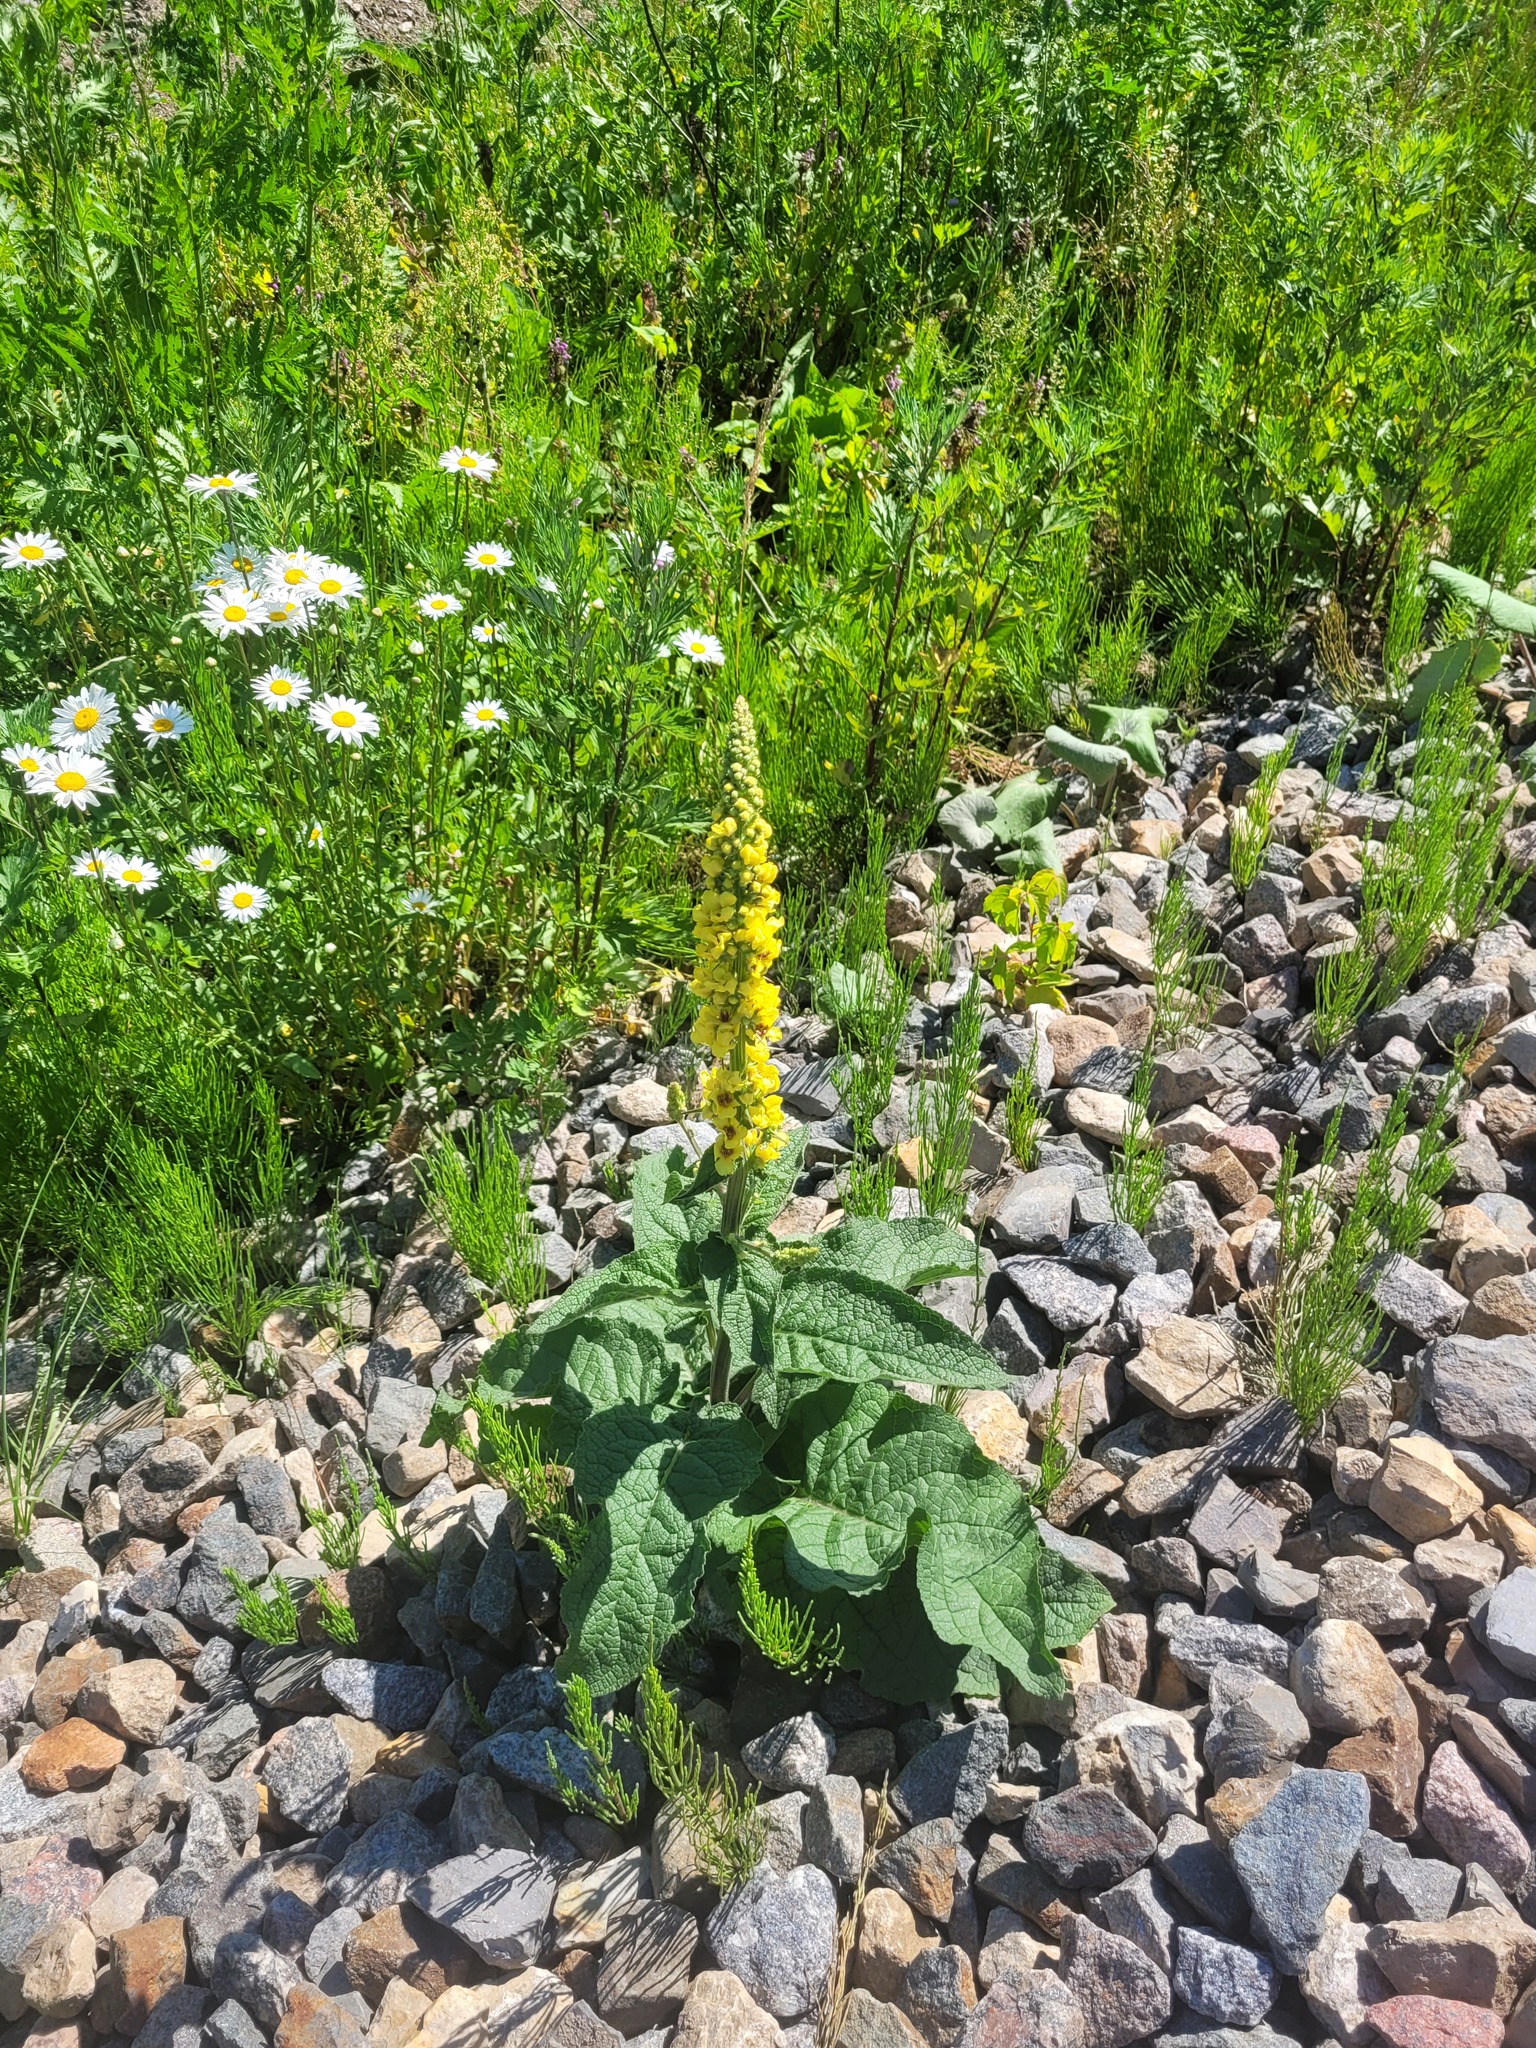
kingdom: Plantae
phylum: Tracheophyta
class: Magnoliopsida
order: Lamiales
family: Scrophulariaceae
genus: Verbascum
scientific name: Verbascum nigrum
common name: Dark mullein
